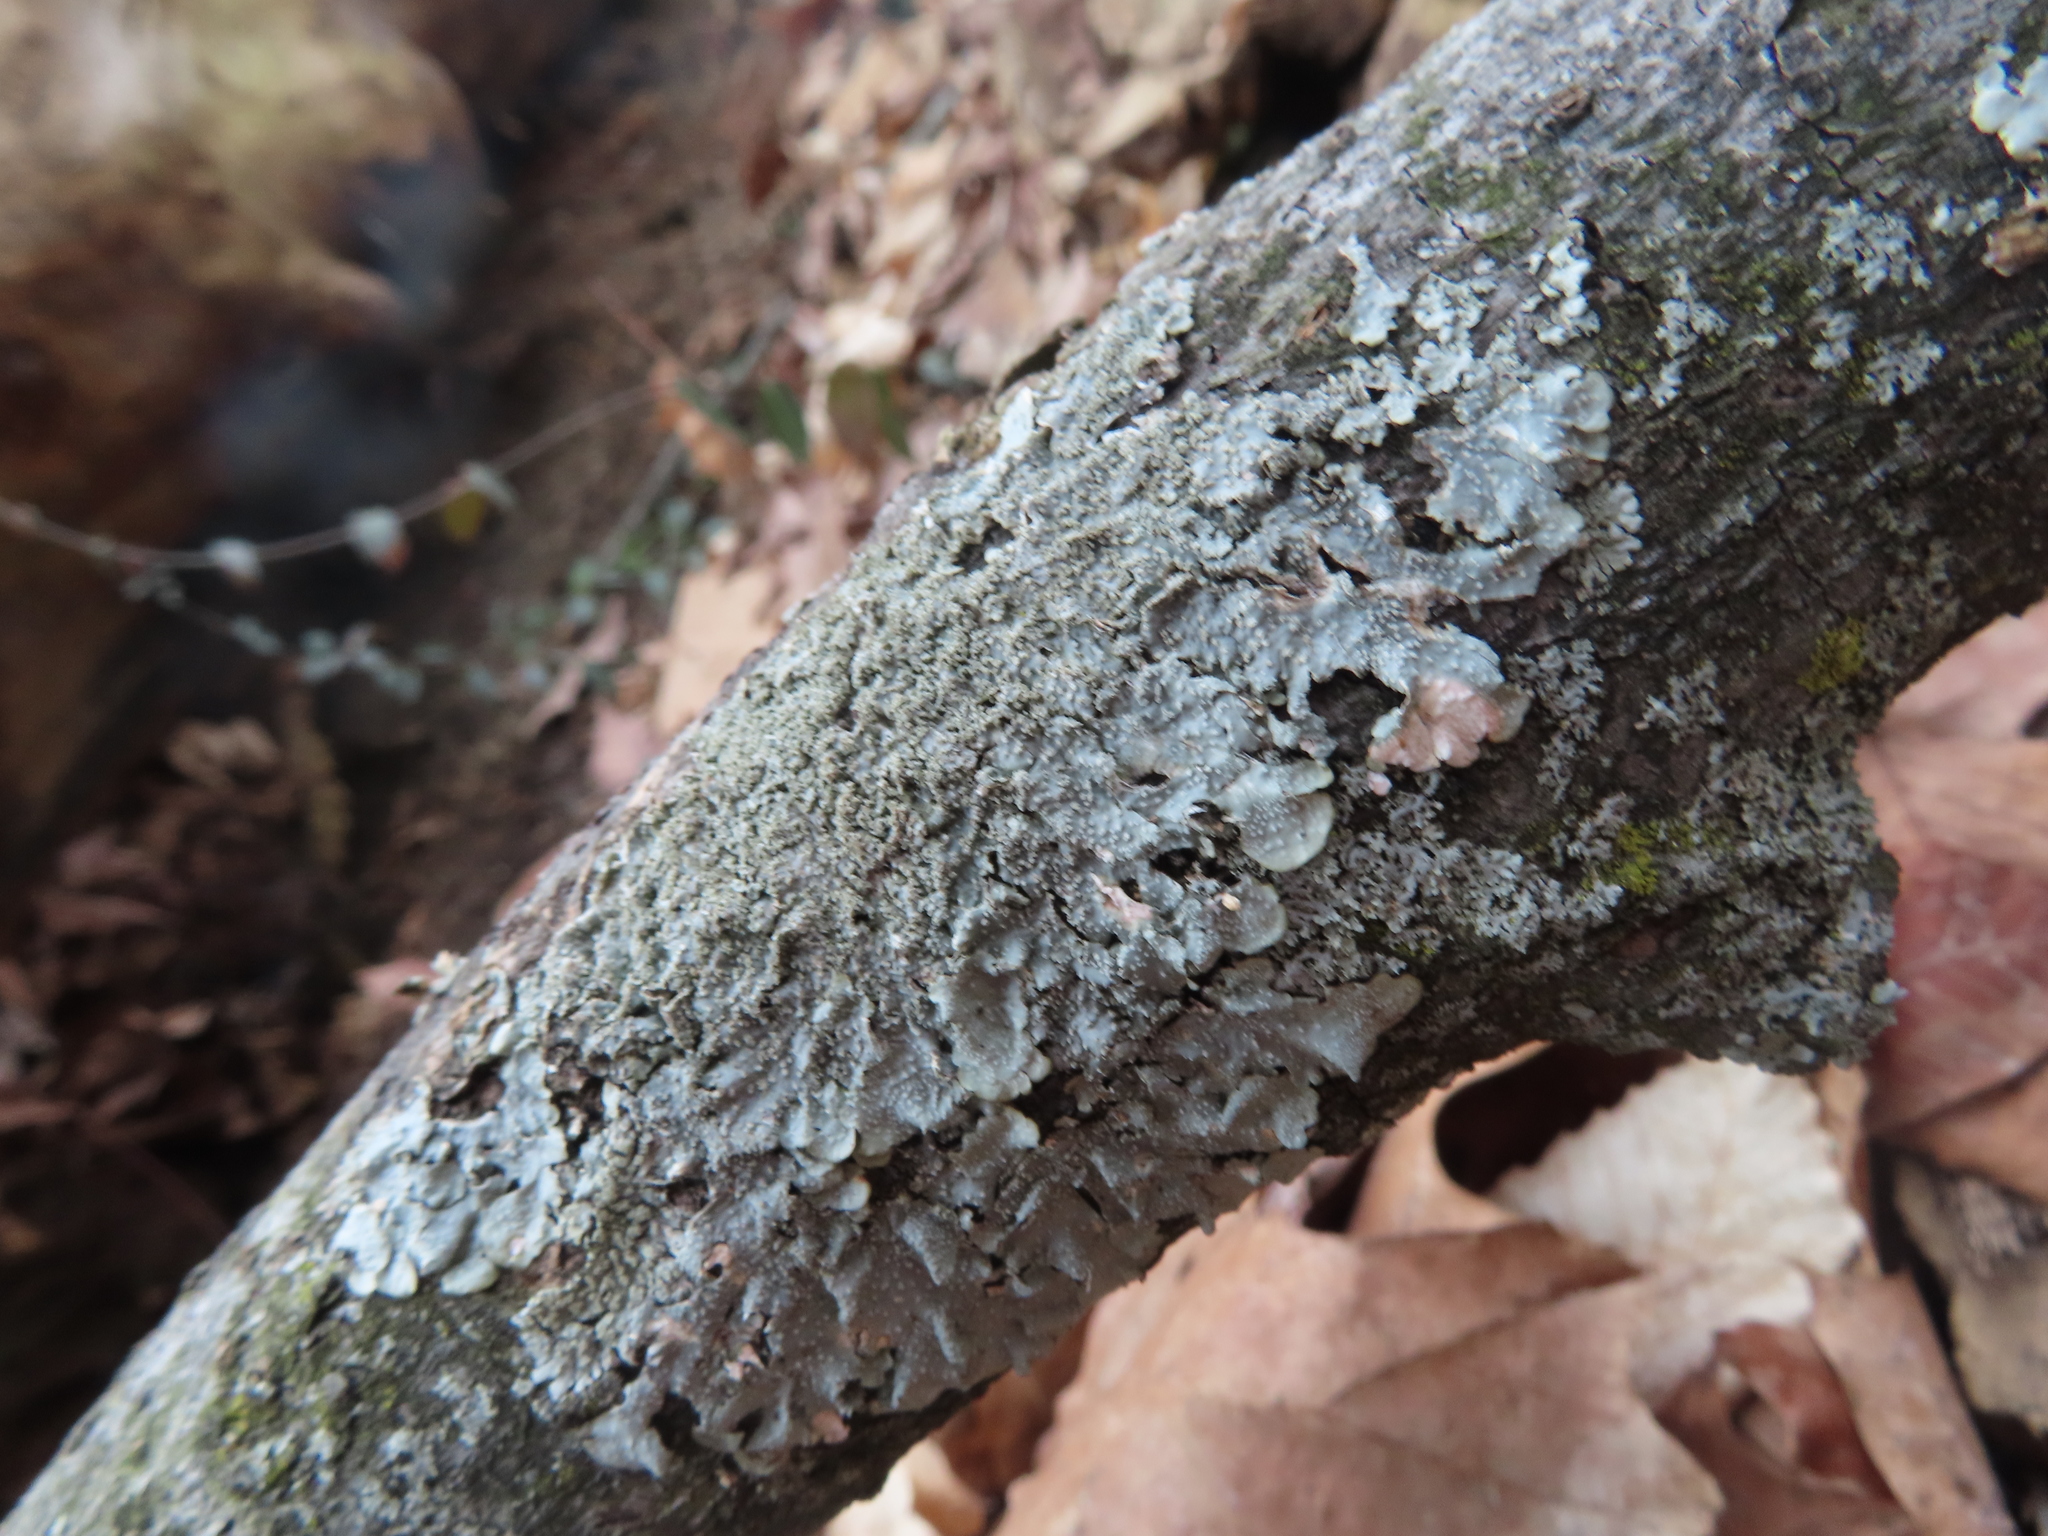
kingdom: Fungi
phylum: Ascomycota
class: Lecanoromycetes
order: Lecanorales
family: Parmeliaceae
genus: Punctelia
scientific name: Punctelia missouriensis
